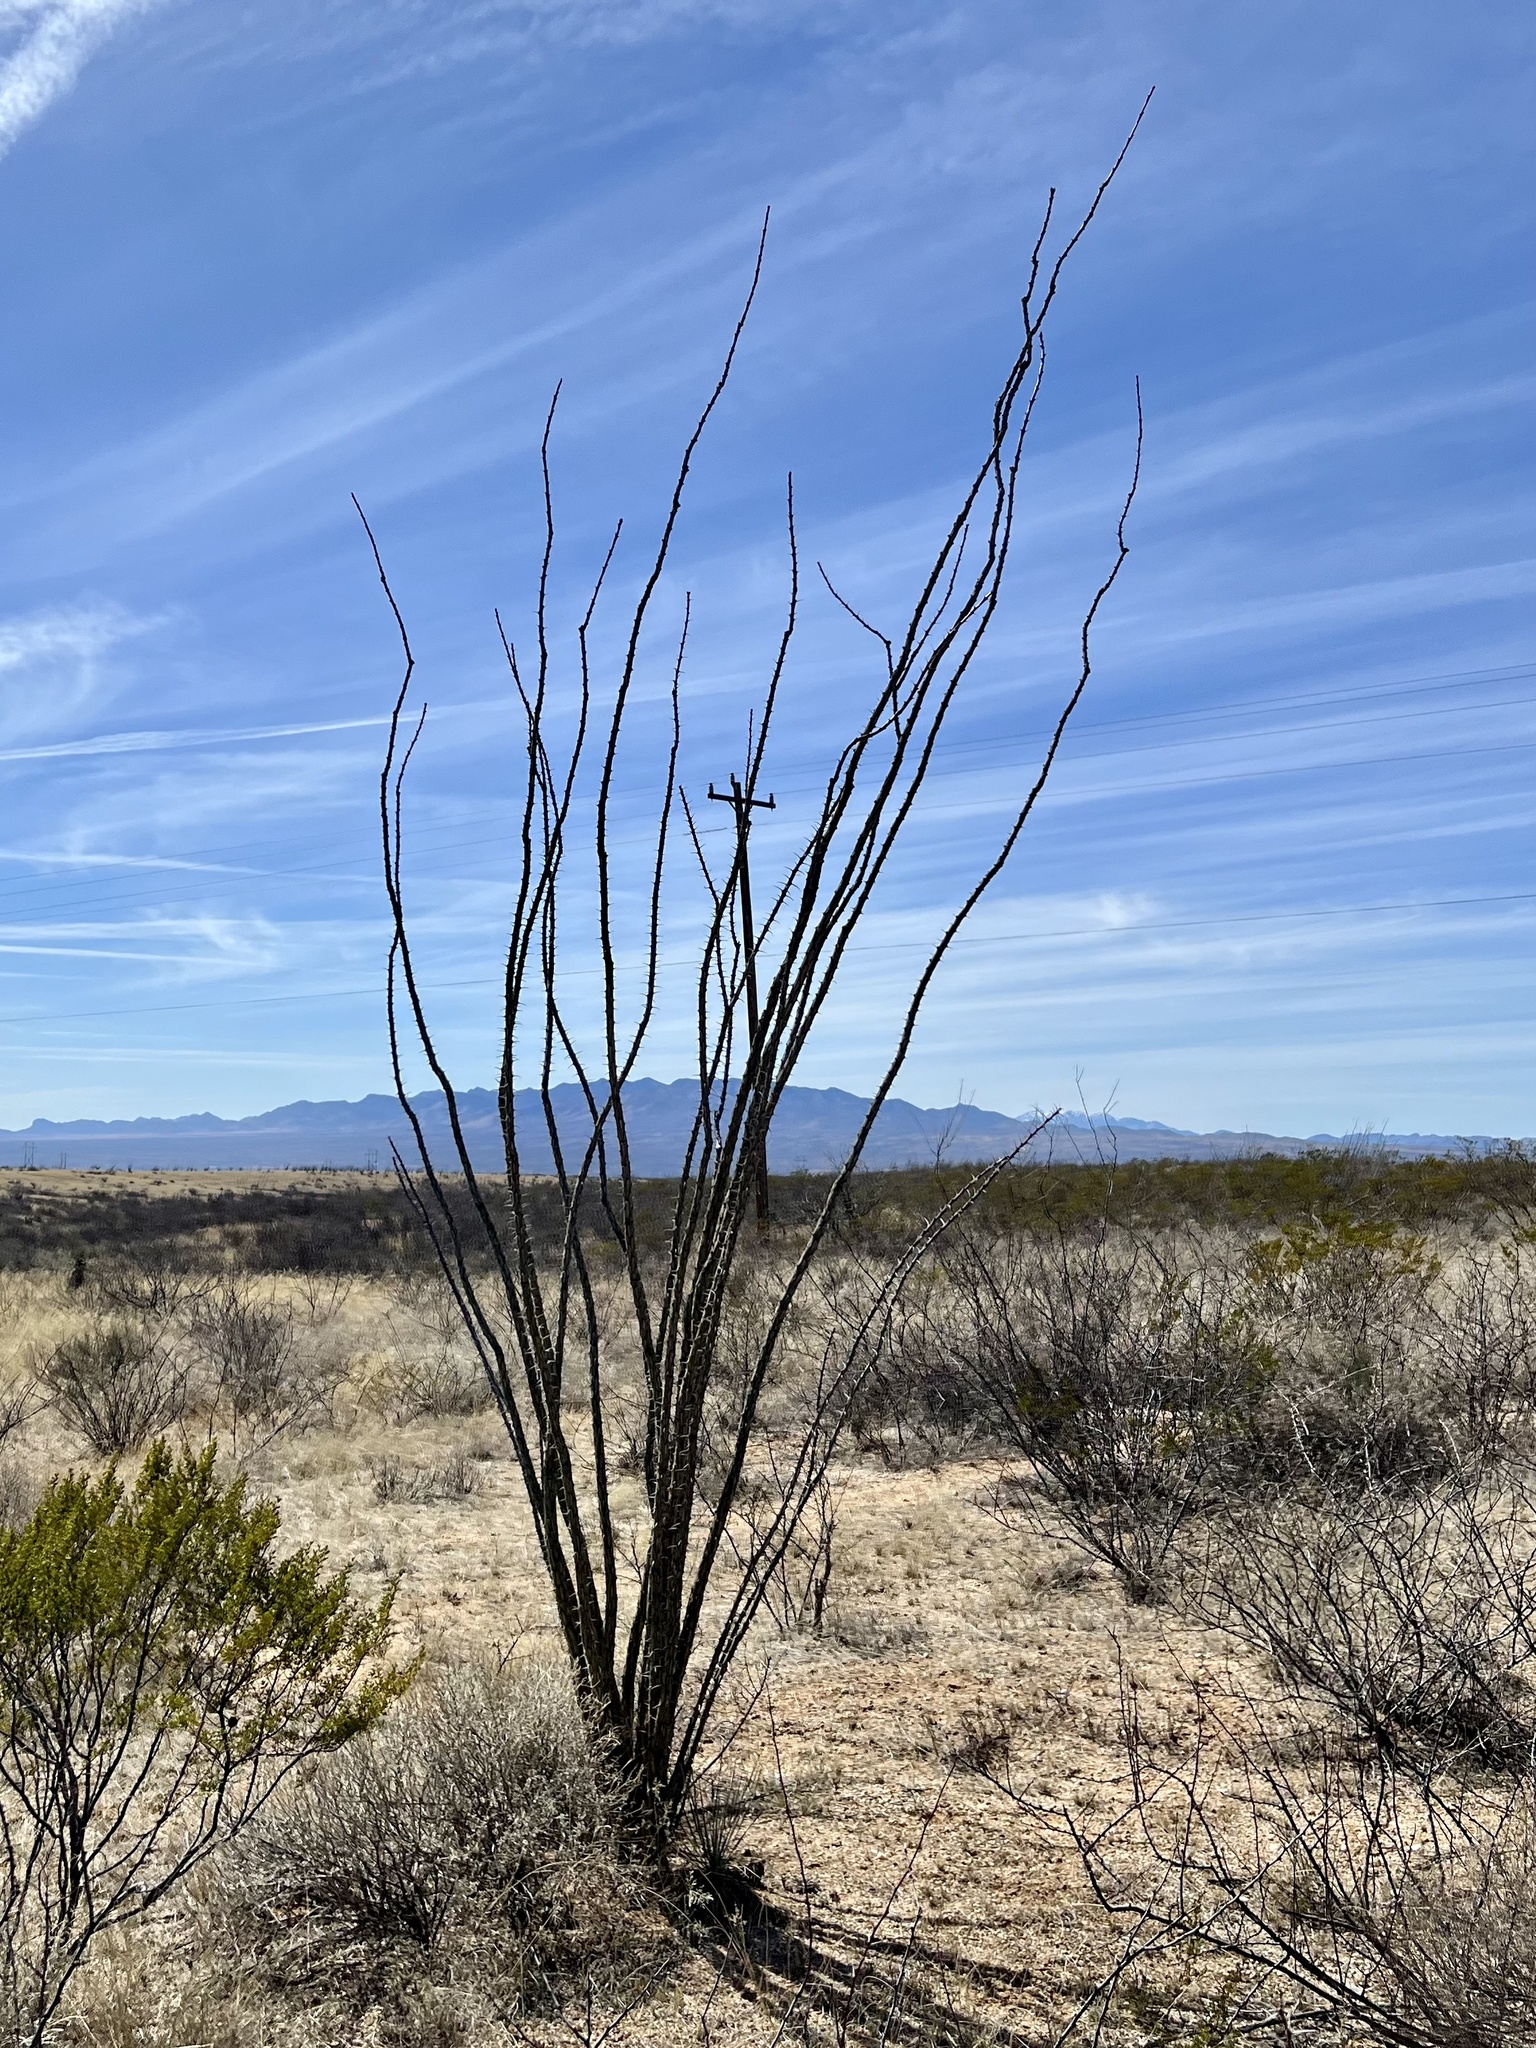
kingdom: Plantae
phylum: Tracheophyta
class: Magnoliopsida
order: Ericales
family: Fouquieriaceae
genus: Fouquieria
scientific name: Fouquieria splendens
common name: Vine-cactus
